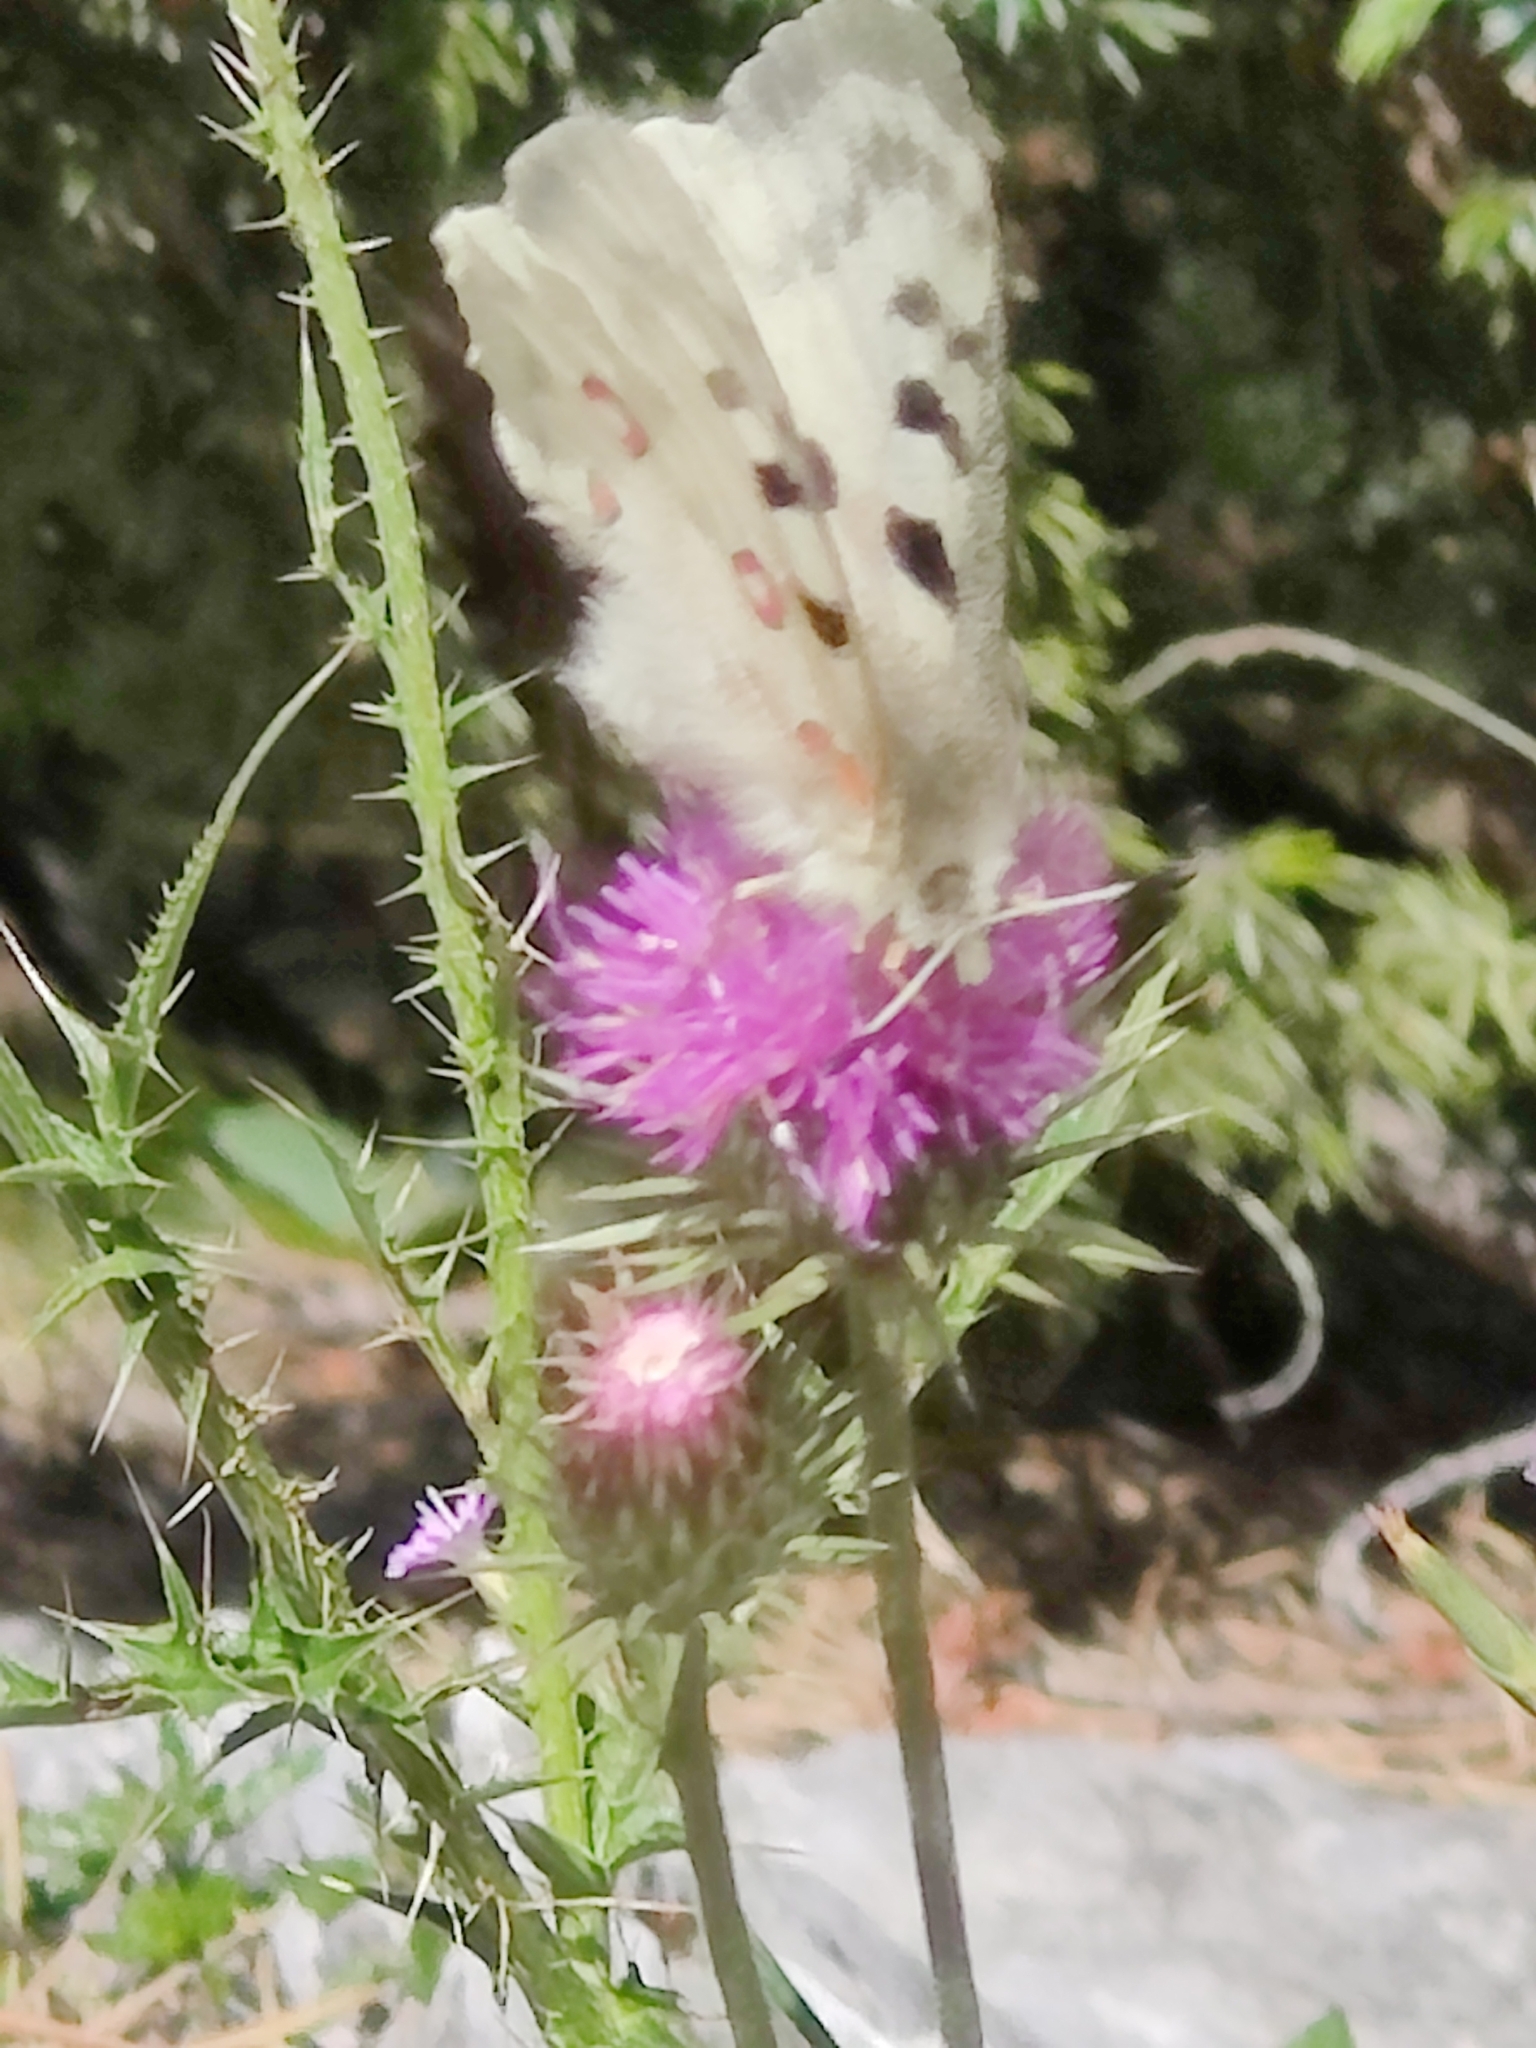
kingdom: Animalia
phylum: Arthropoda
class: Insecta
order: Lepidoptera
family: Papilionidae
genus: Parnassius
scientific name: Parnassius apollo
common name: Apollo
